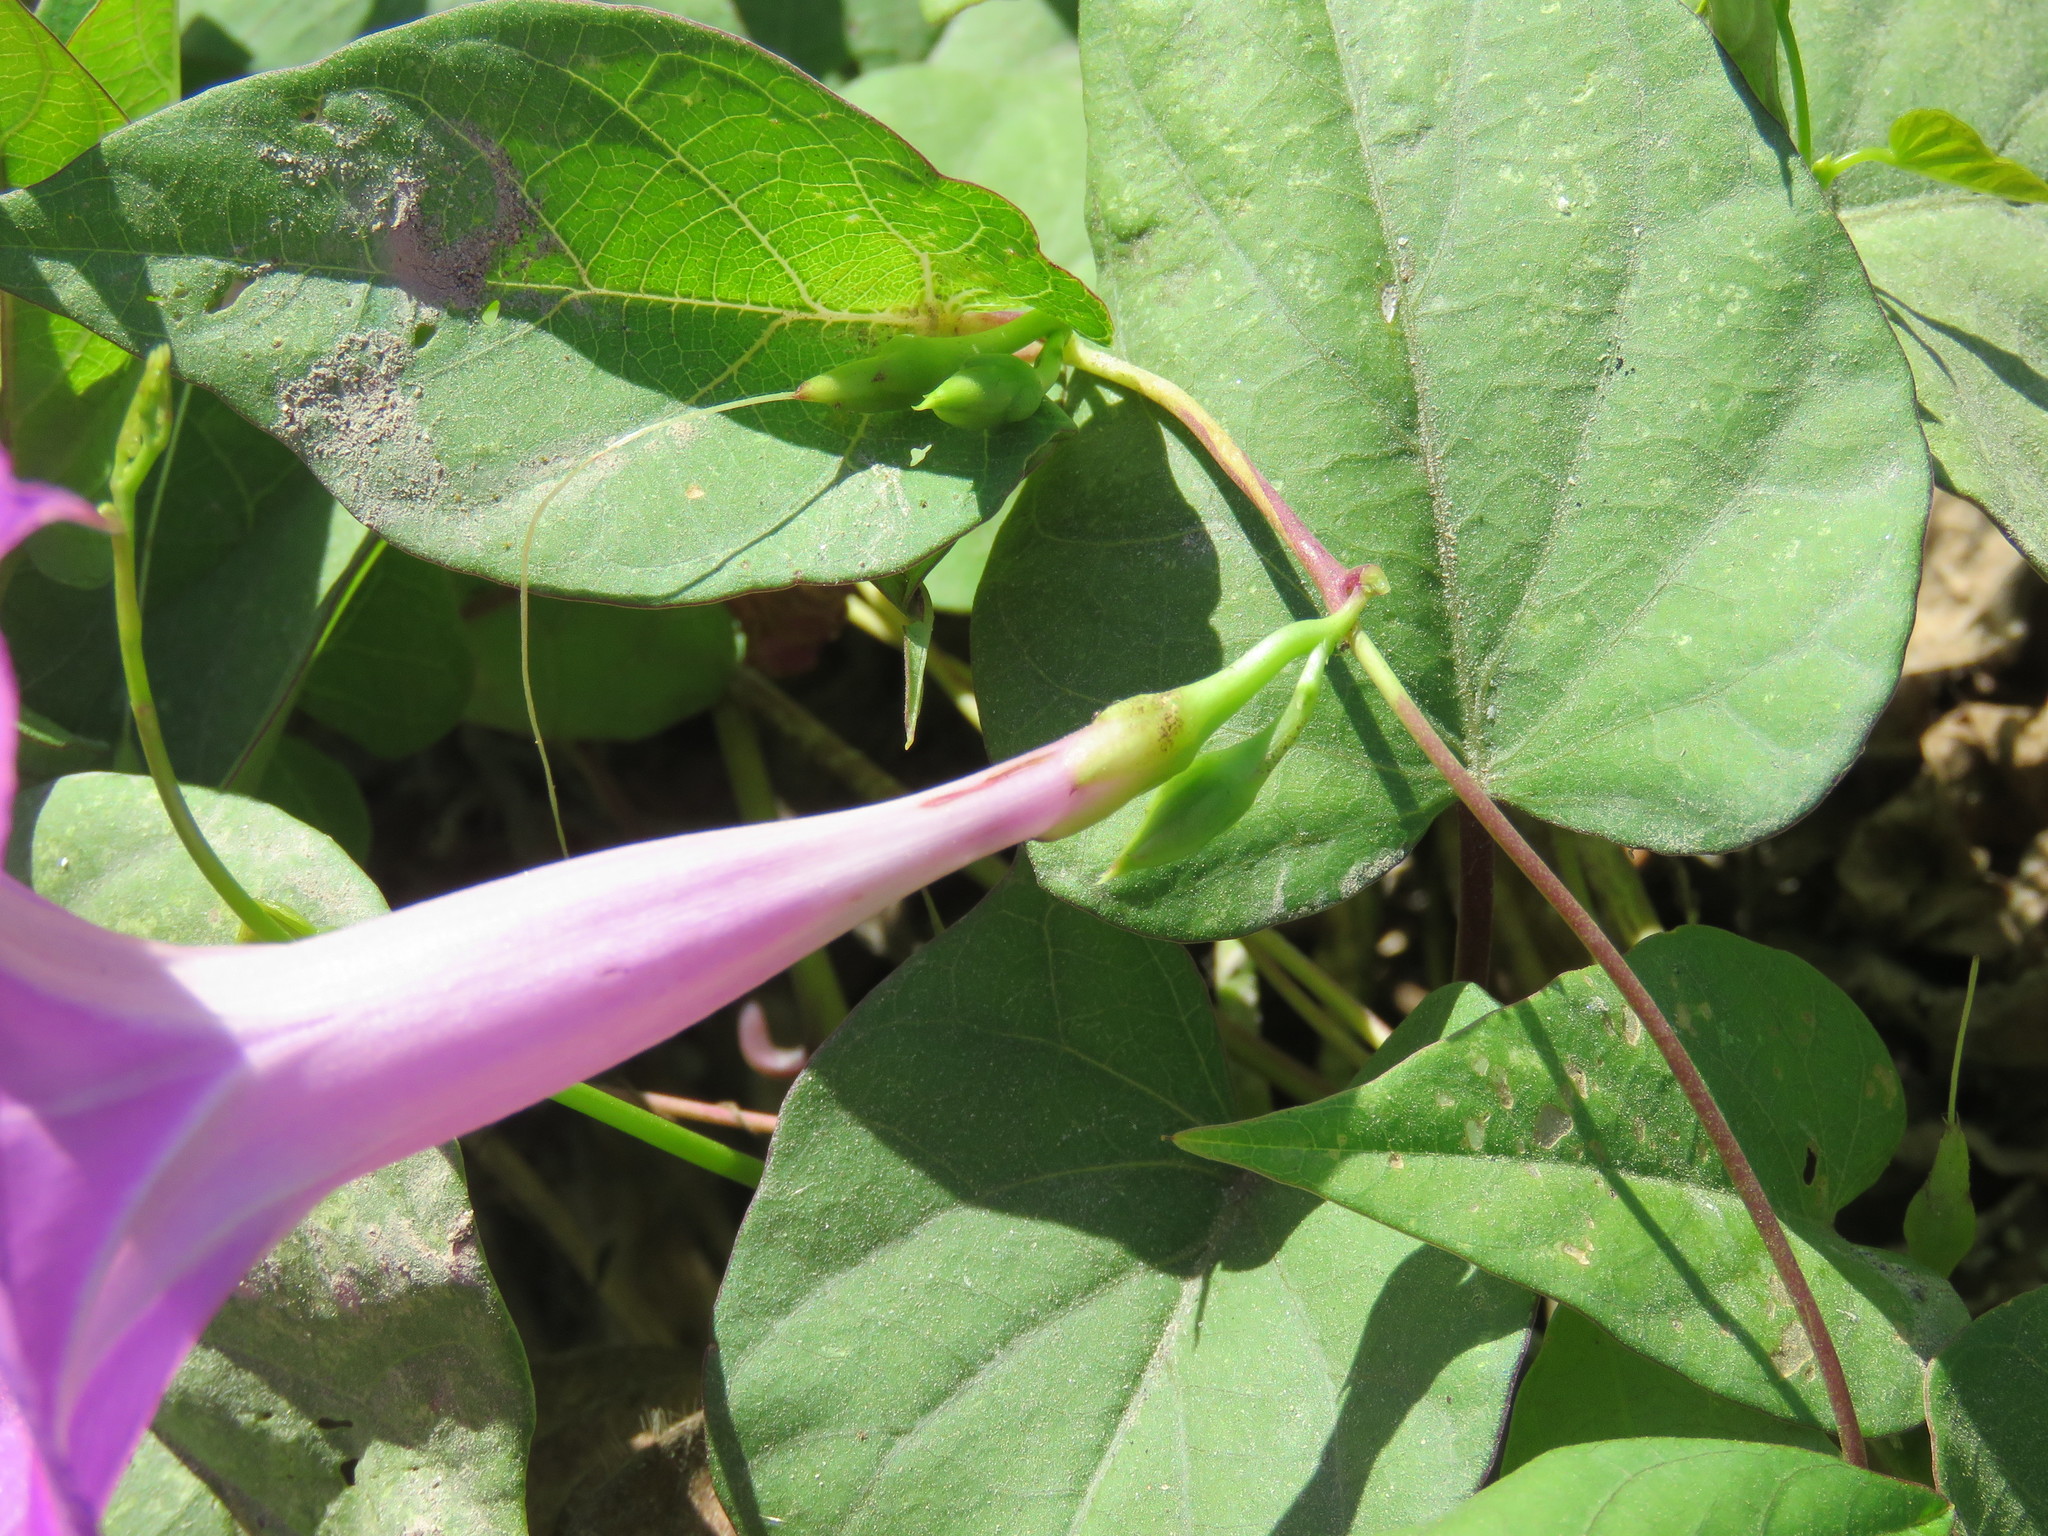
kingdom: Plantae
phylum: Tracheophyta
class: Magnoliopsida
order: Solanales
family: Convolvulaceae
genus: Ipomoea
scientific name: Ipomoea dumosa
